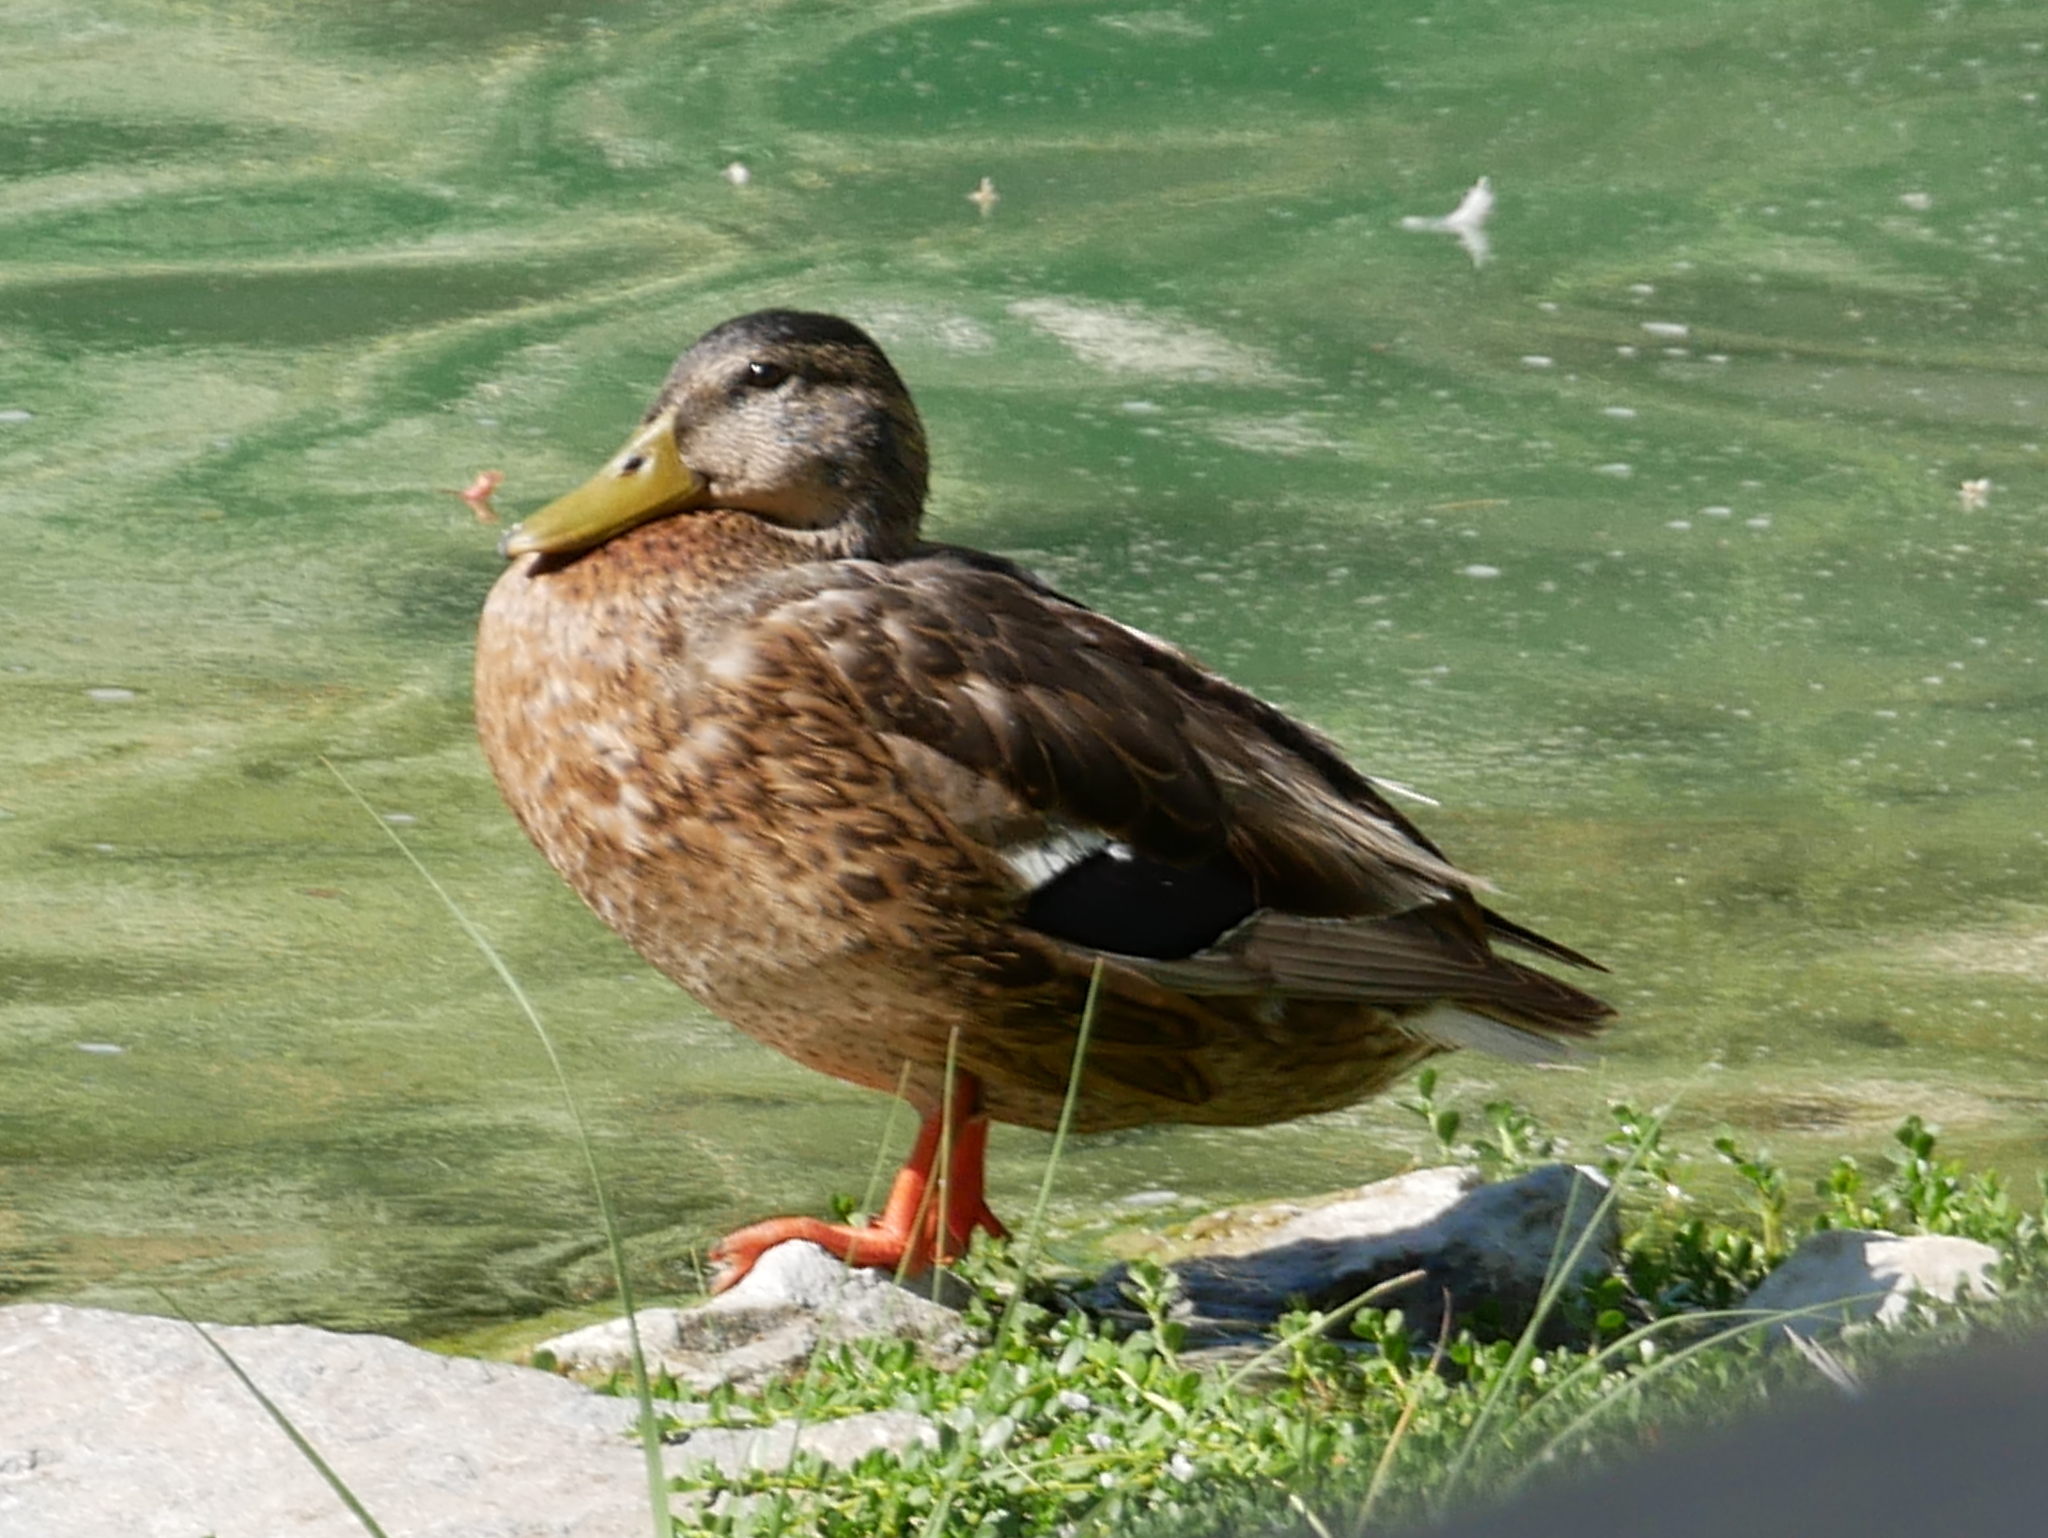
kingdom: Animalia
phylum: Chordata
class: Aves
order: Anseriformes
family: Anatidae
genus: Anas
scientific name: Anas platyrhynchos
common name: Mallard
